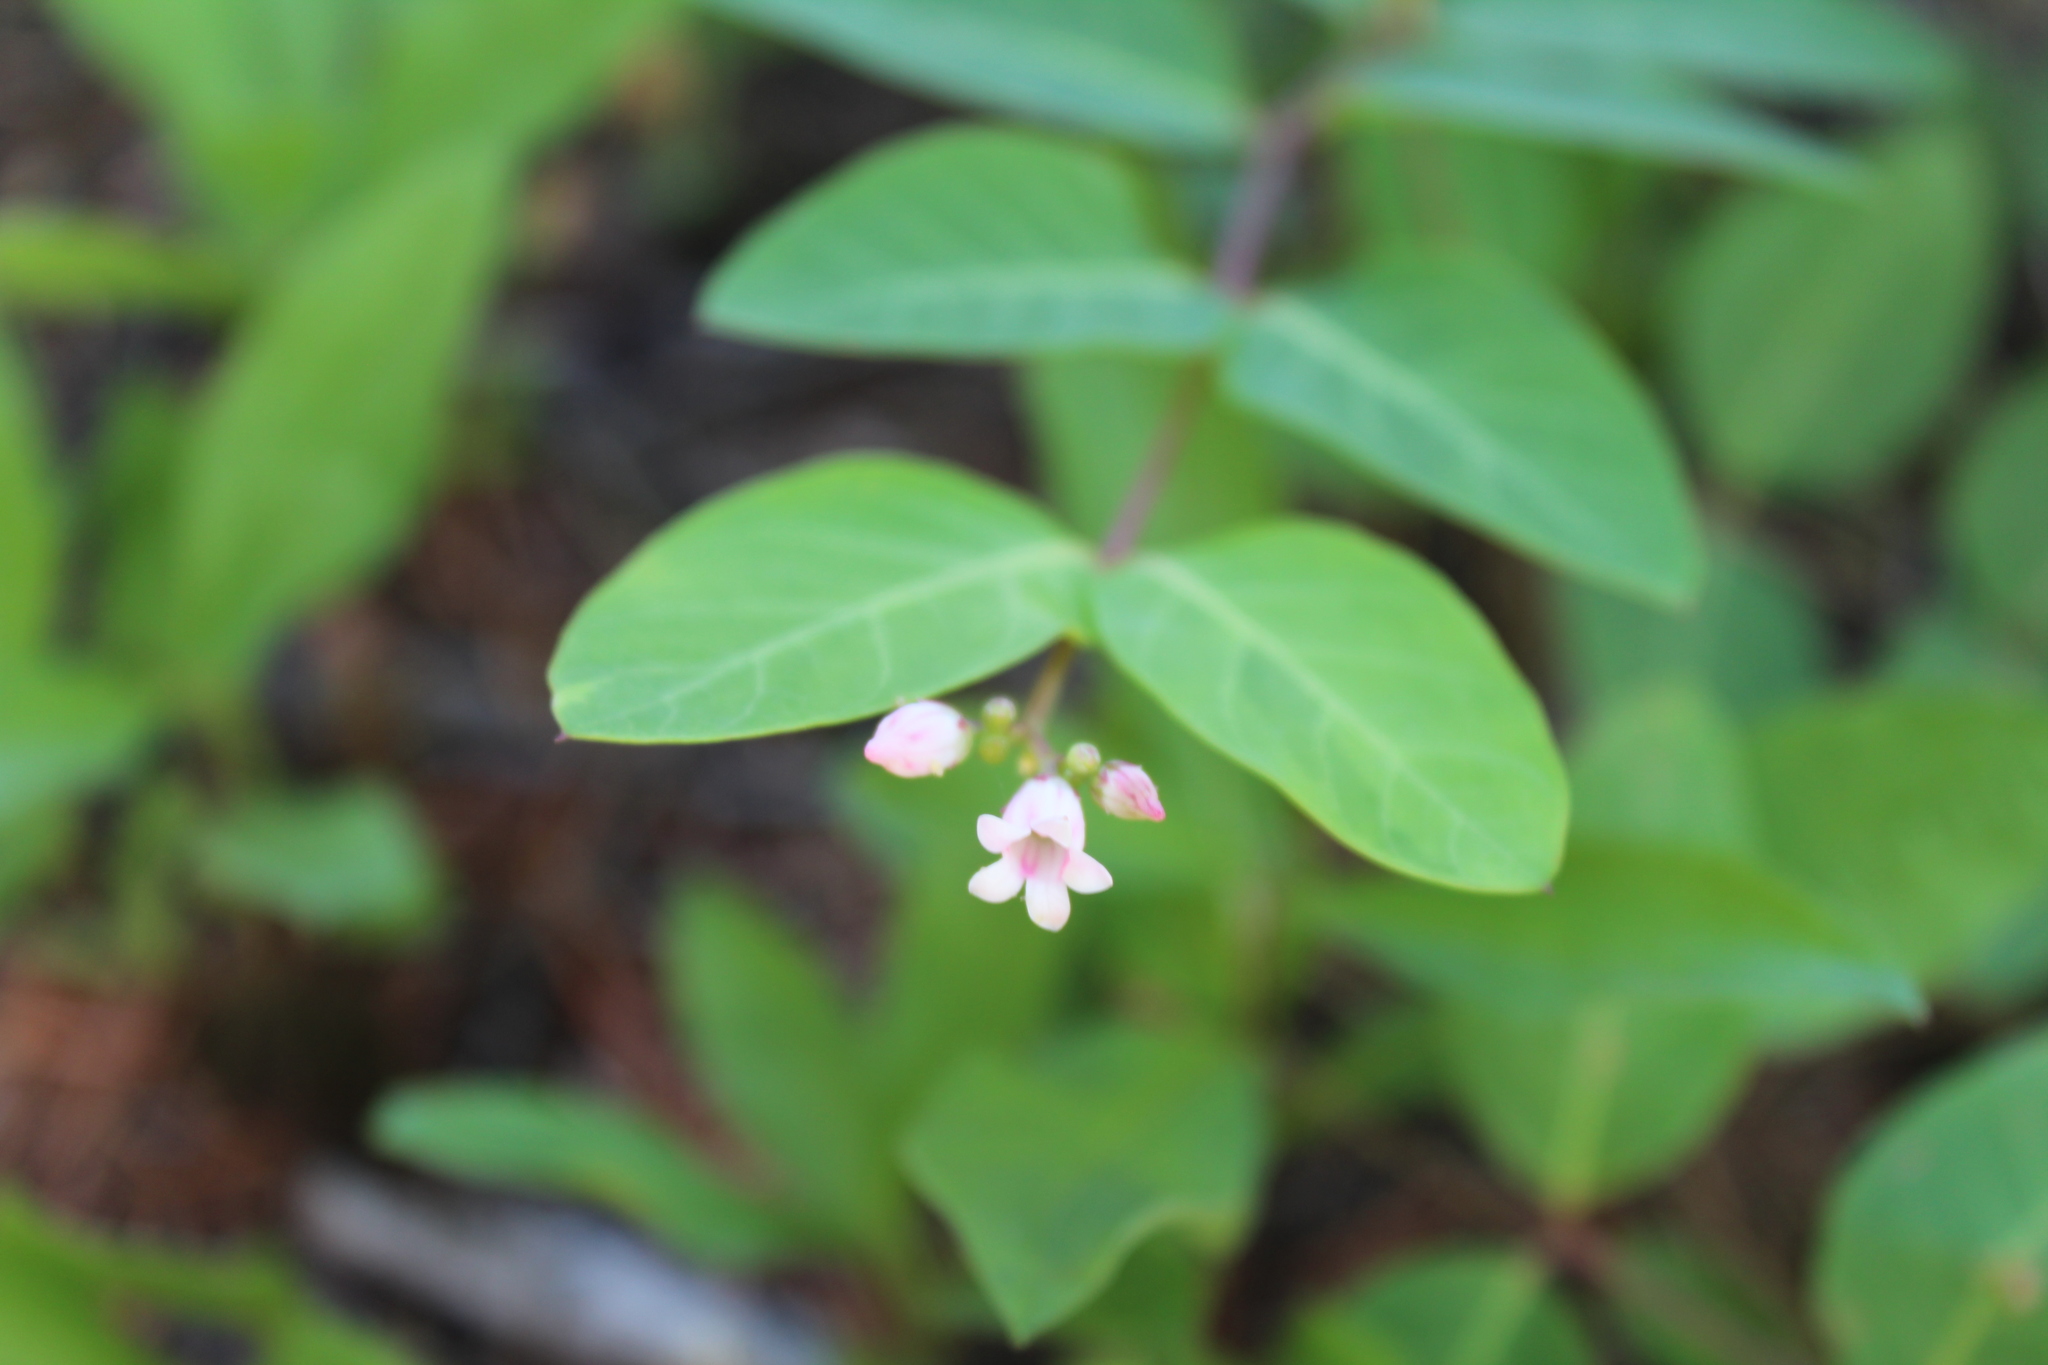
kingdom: Plantae
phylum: Tracheophyta
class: Magnoliopsida
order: Gentianales
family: Apocynaceae
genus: Apocynum
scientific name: Apocynum androsaemifolium
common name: Spreading dogbane
